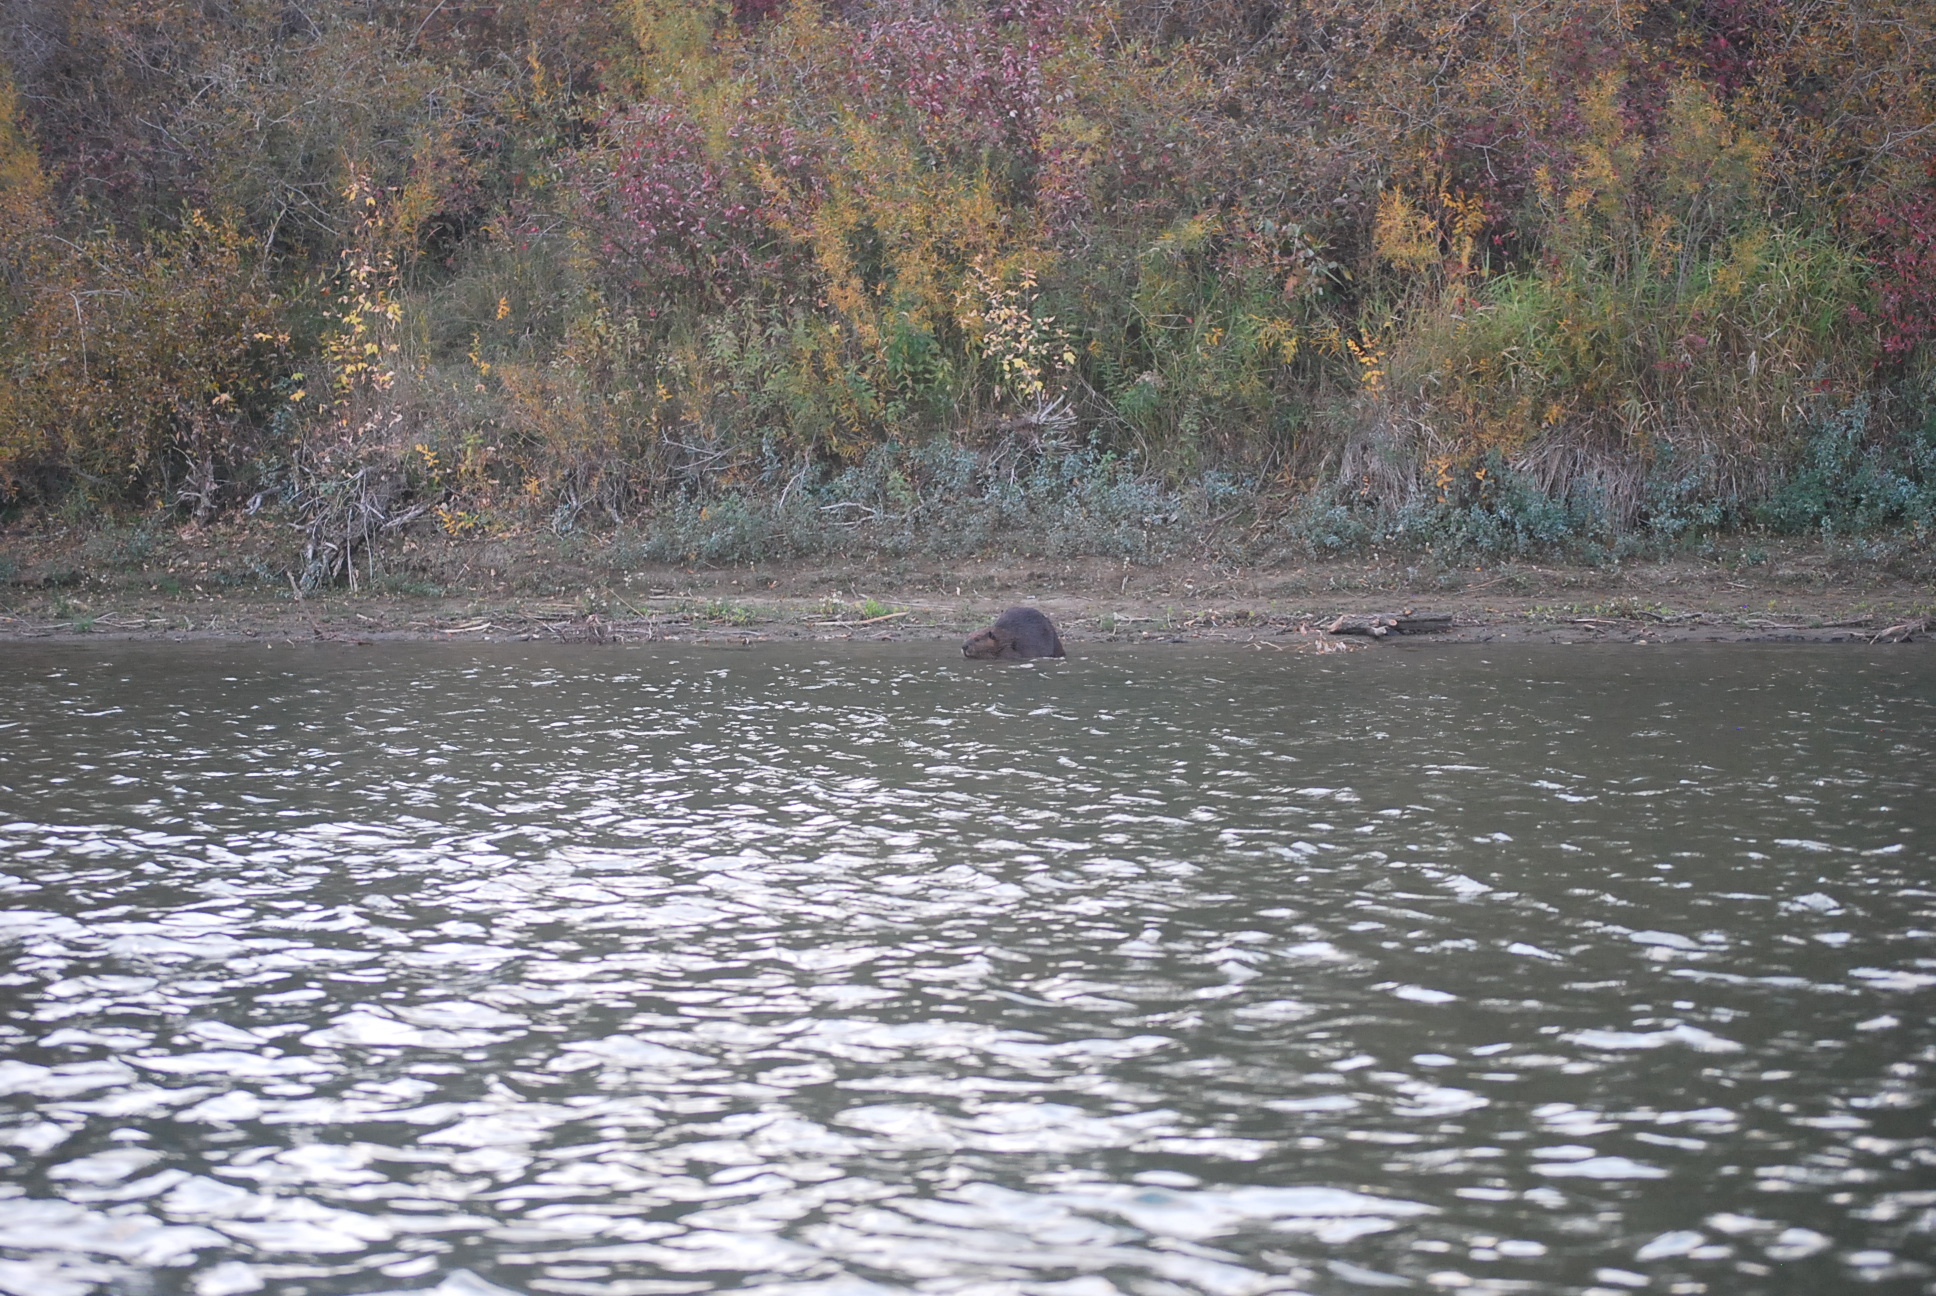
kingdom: Animalia
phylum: Chordata
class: Mammalia
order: Rodentia
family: Castoridae
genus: Castor
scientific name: Castor canadensis
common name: American beaver
